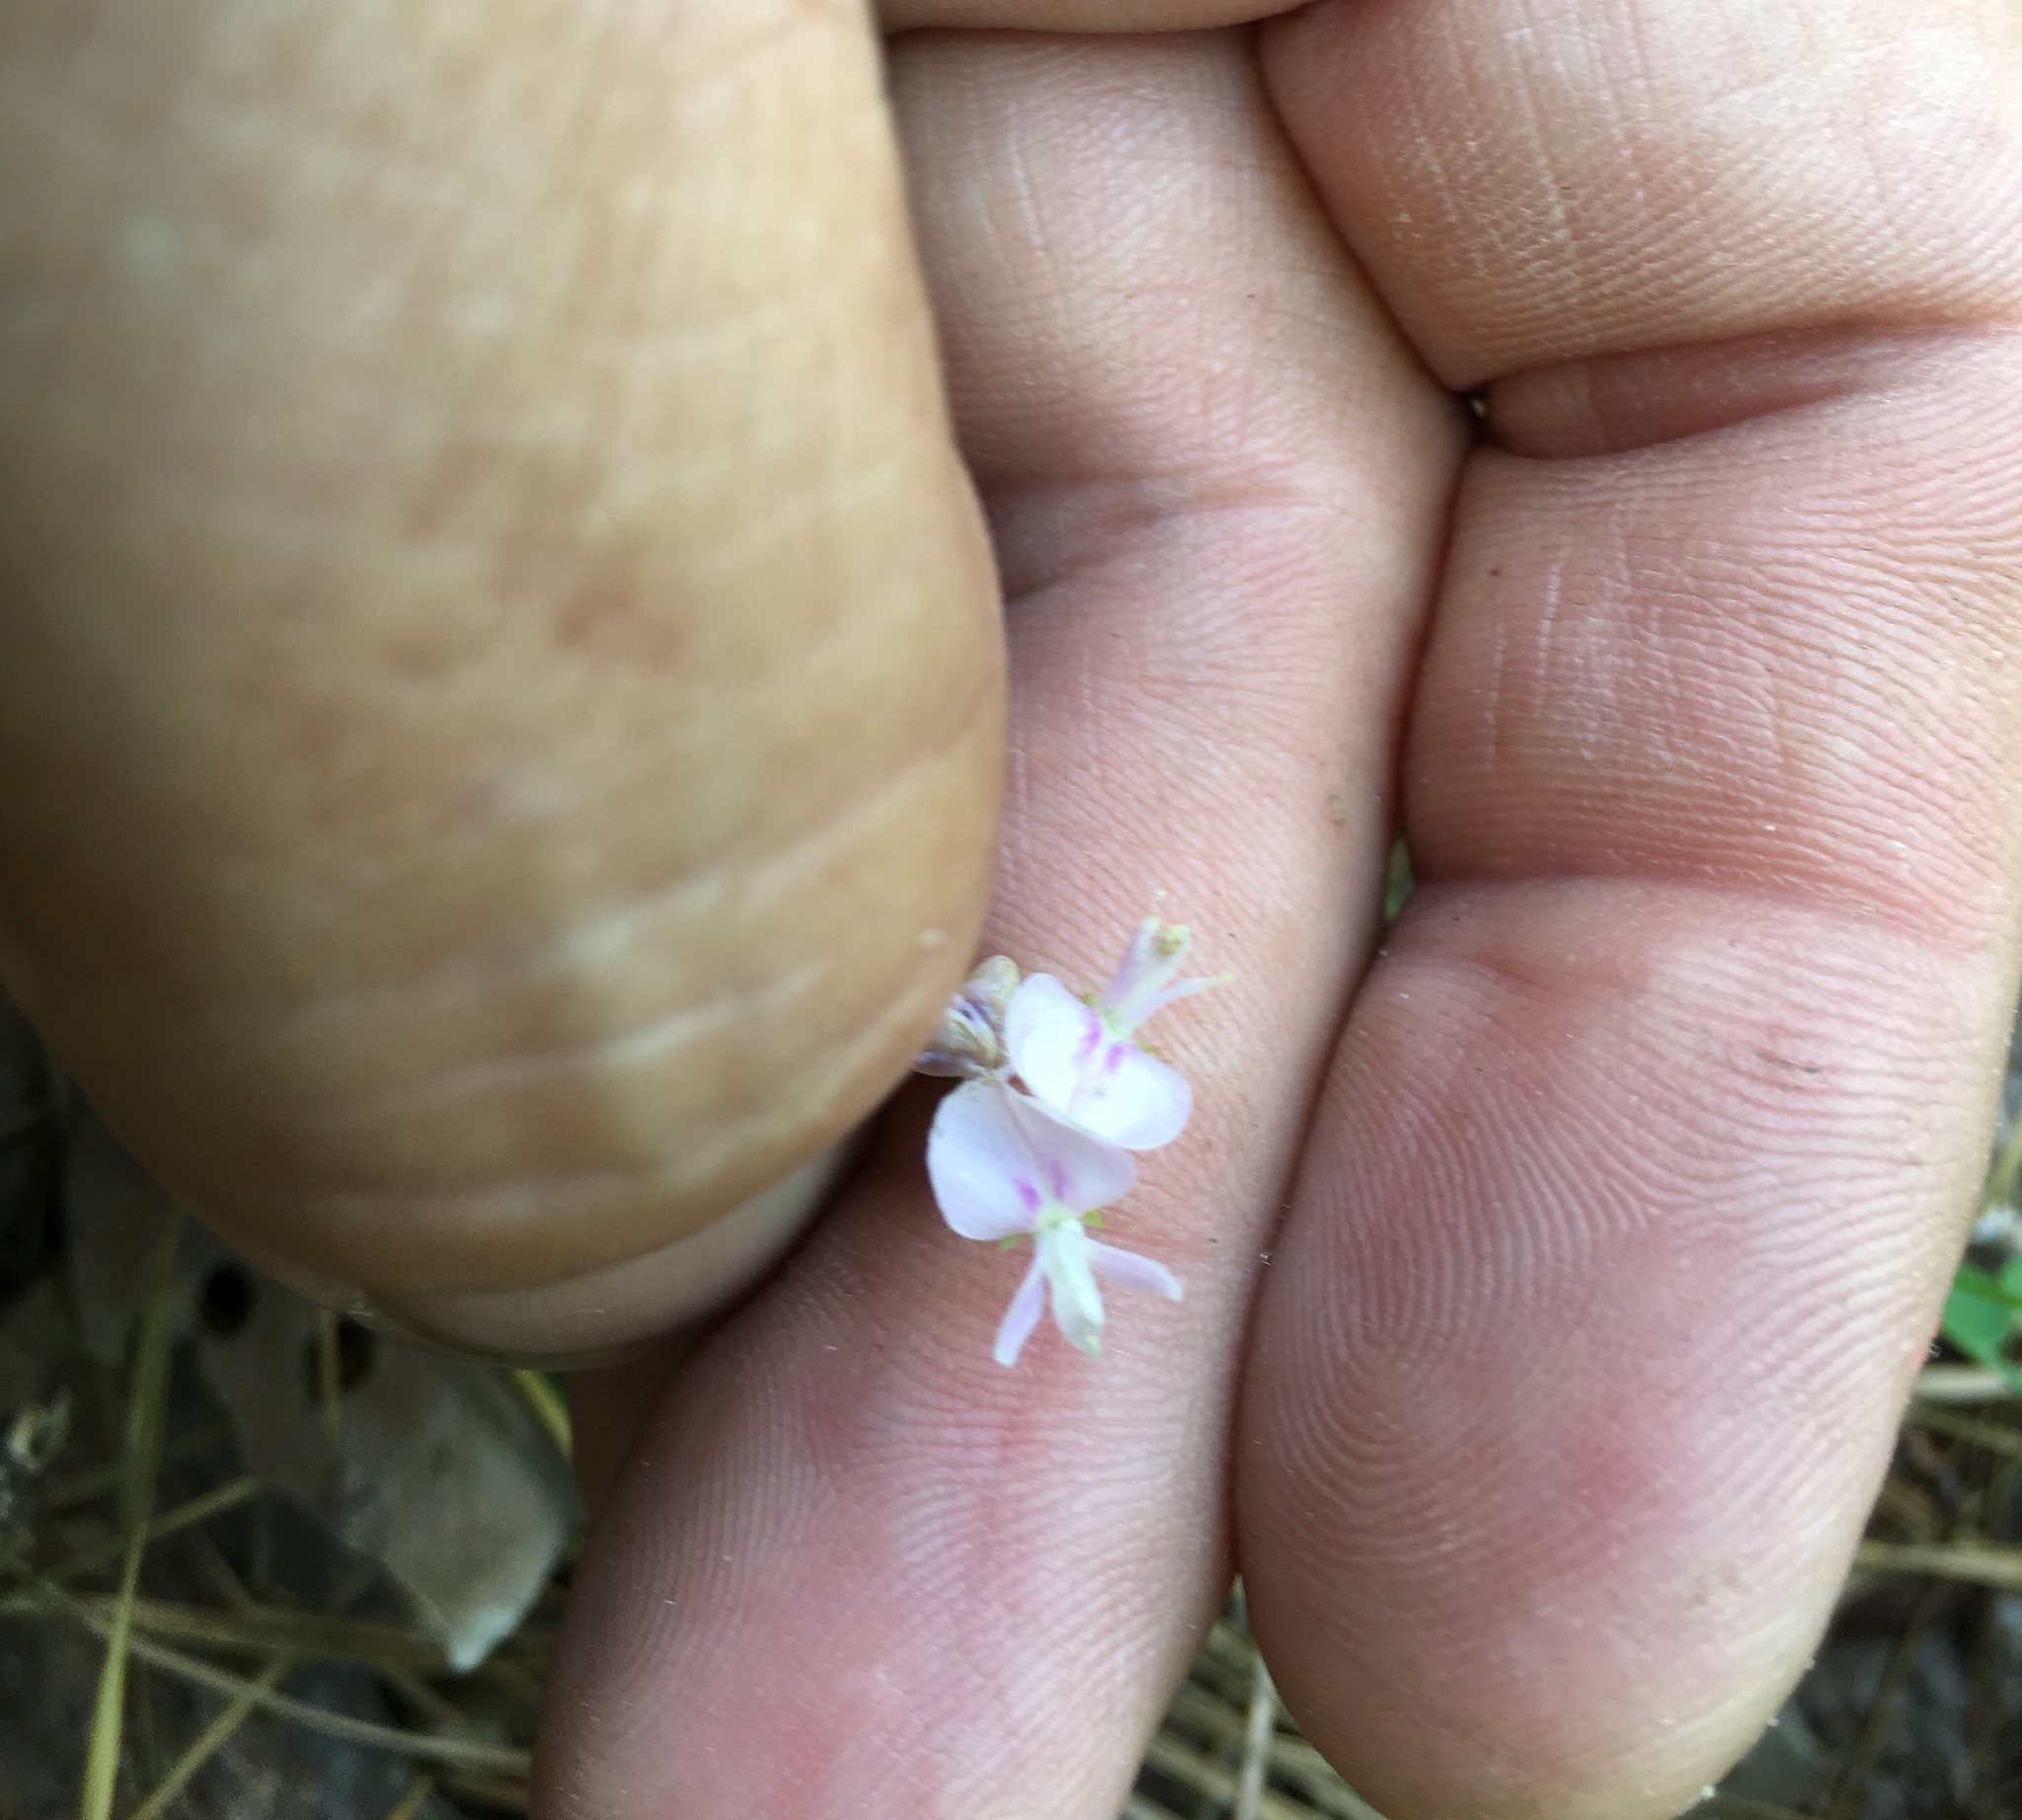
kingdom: Plantae
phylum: Tracheophyta
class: Magnoliopsida
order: Fabales
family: Fabaceae
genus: Lespedeza
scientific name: Lespedeza repens
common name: Creeping bush-clover
